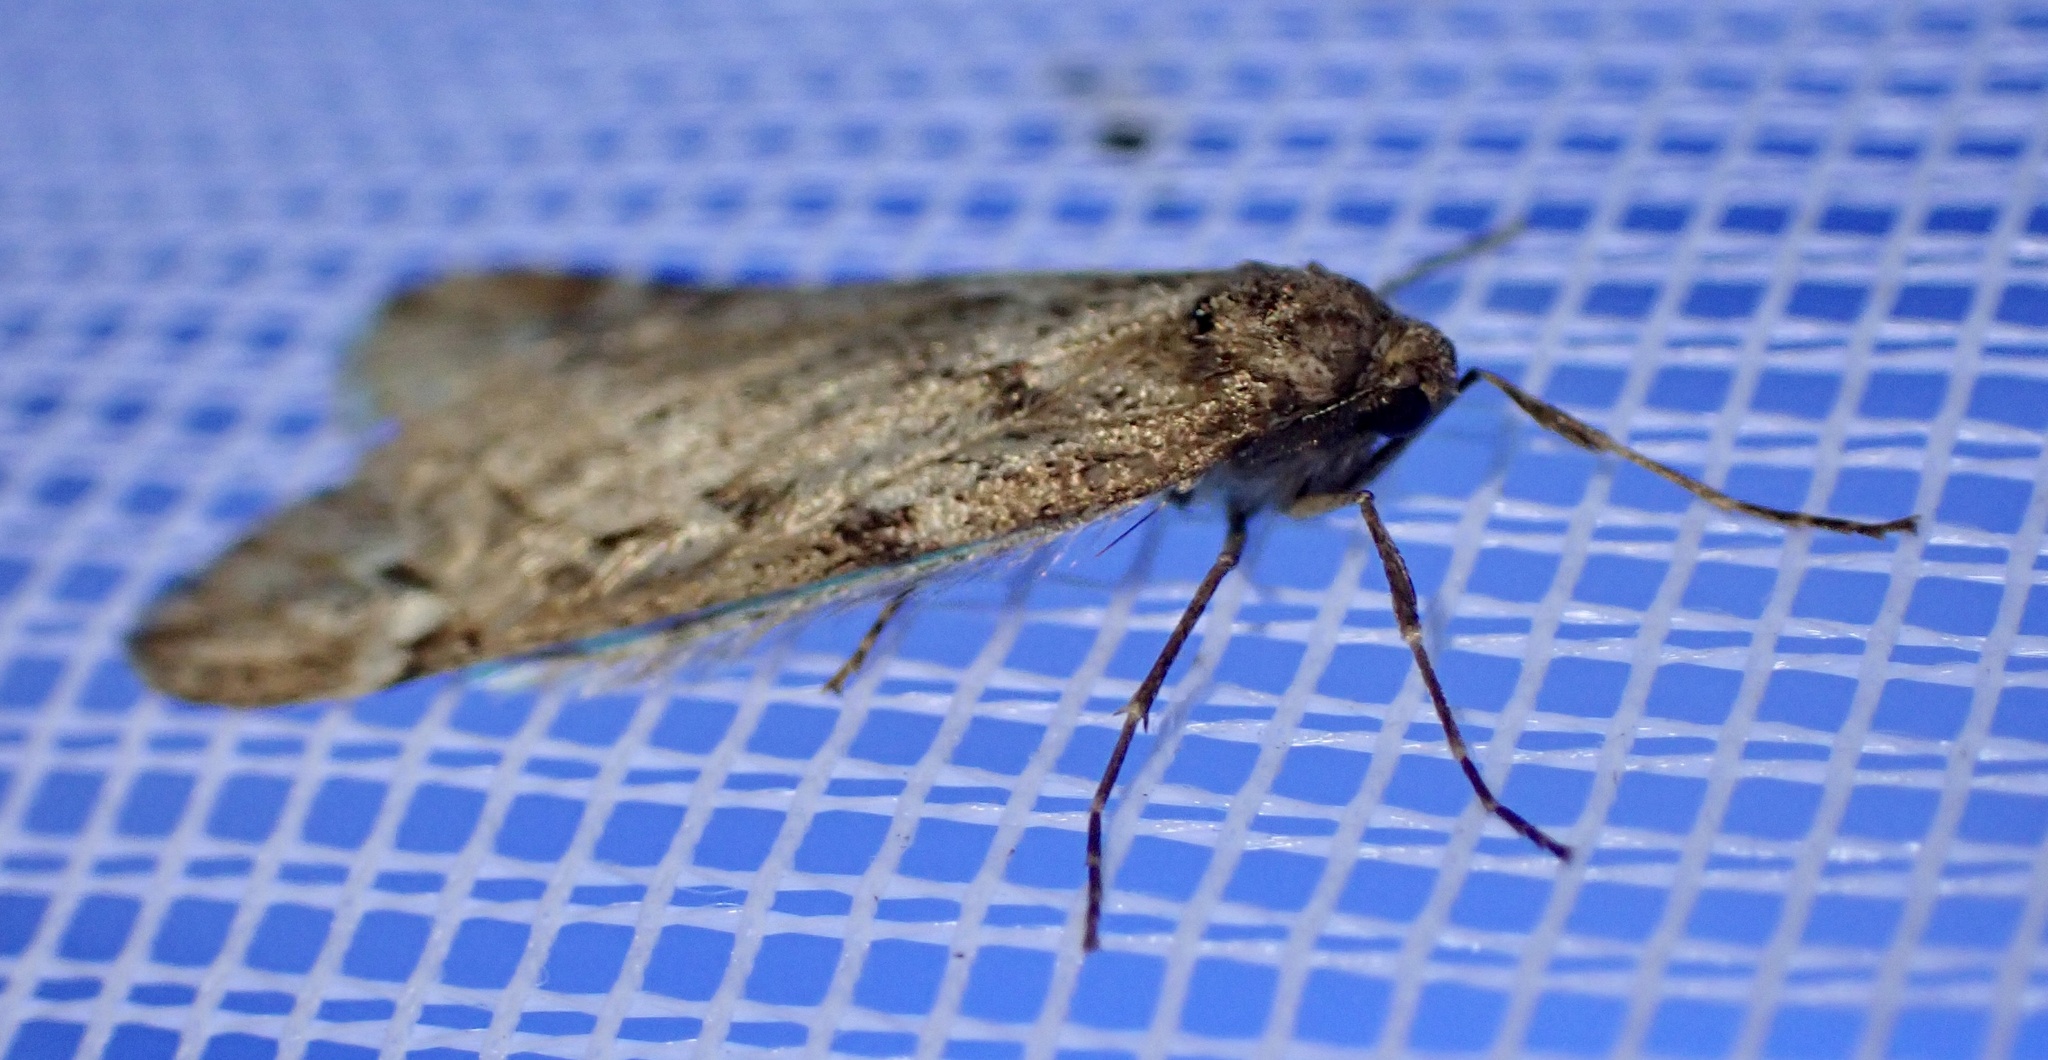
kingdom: Animalia
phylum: Arthropoda
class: Insecta
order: Lepidoptera
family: Geometridae
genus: Alsophila
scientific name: Alsophila aescularia
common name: March moth
